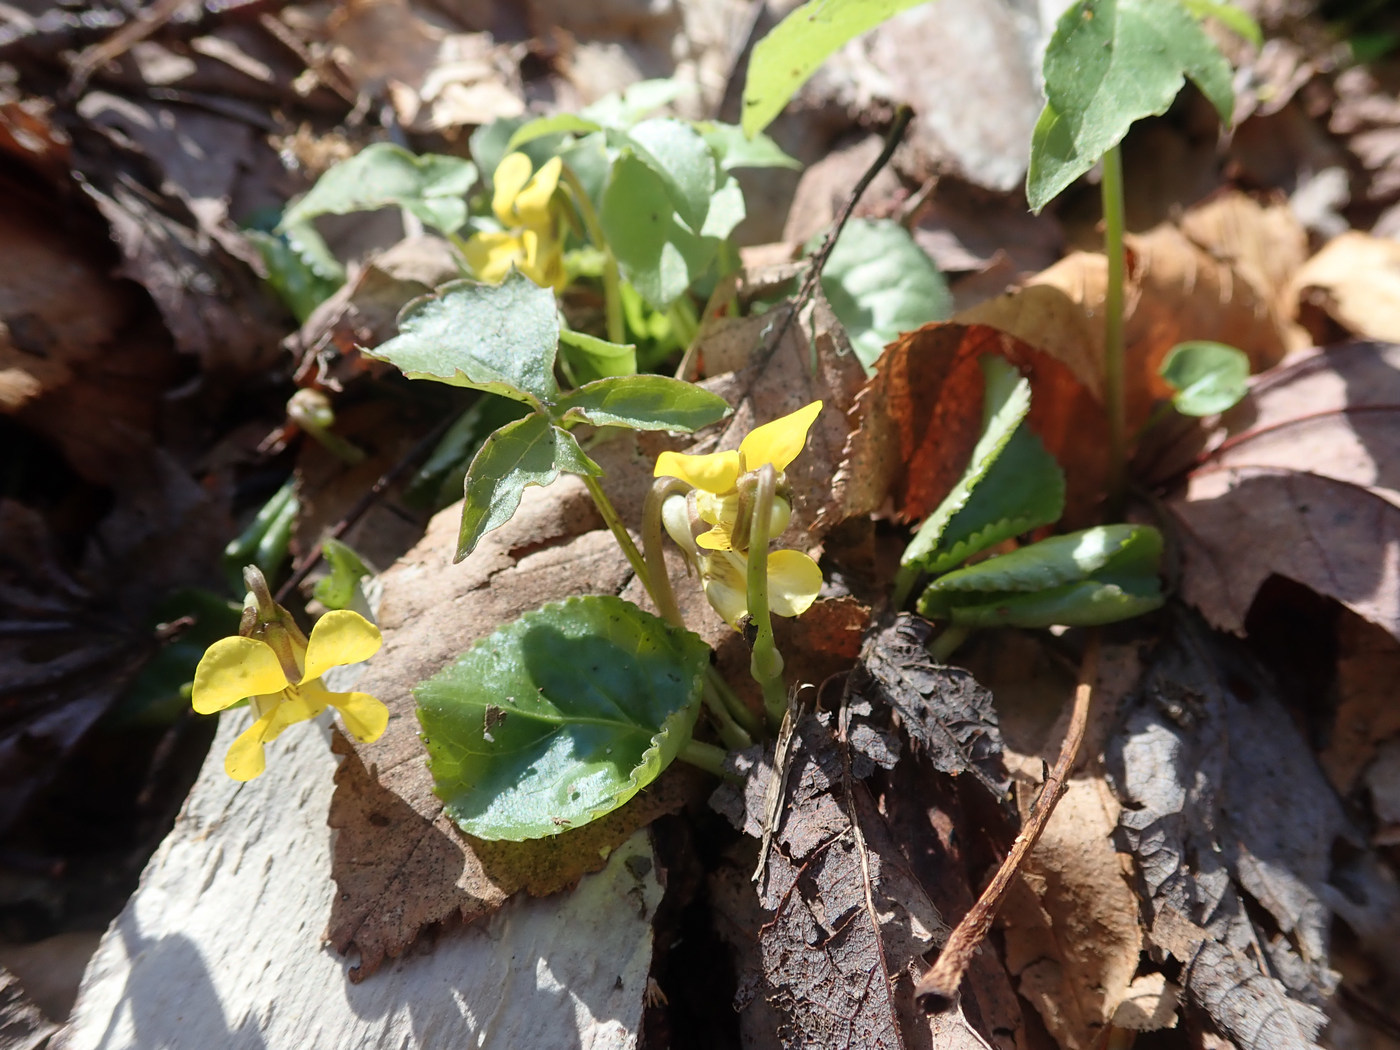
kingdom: Plantae
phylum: Tracheophyta
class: Magnoliopsida
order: Malpighiales
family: Violaceae
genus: Viola
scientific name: Viola rotundifolia
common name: Early yellow violet
